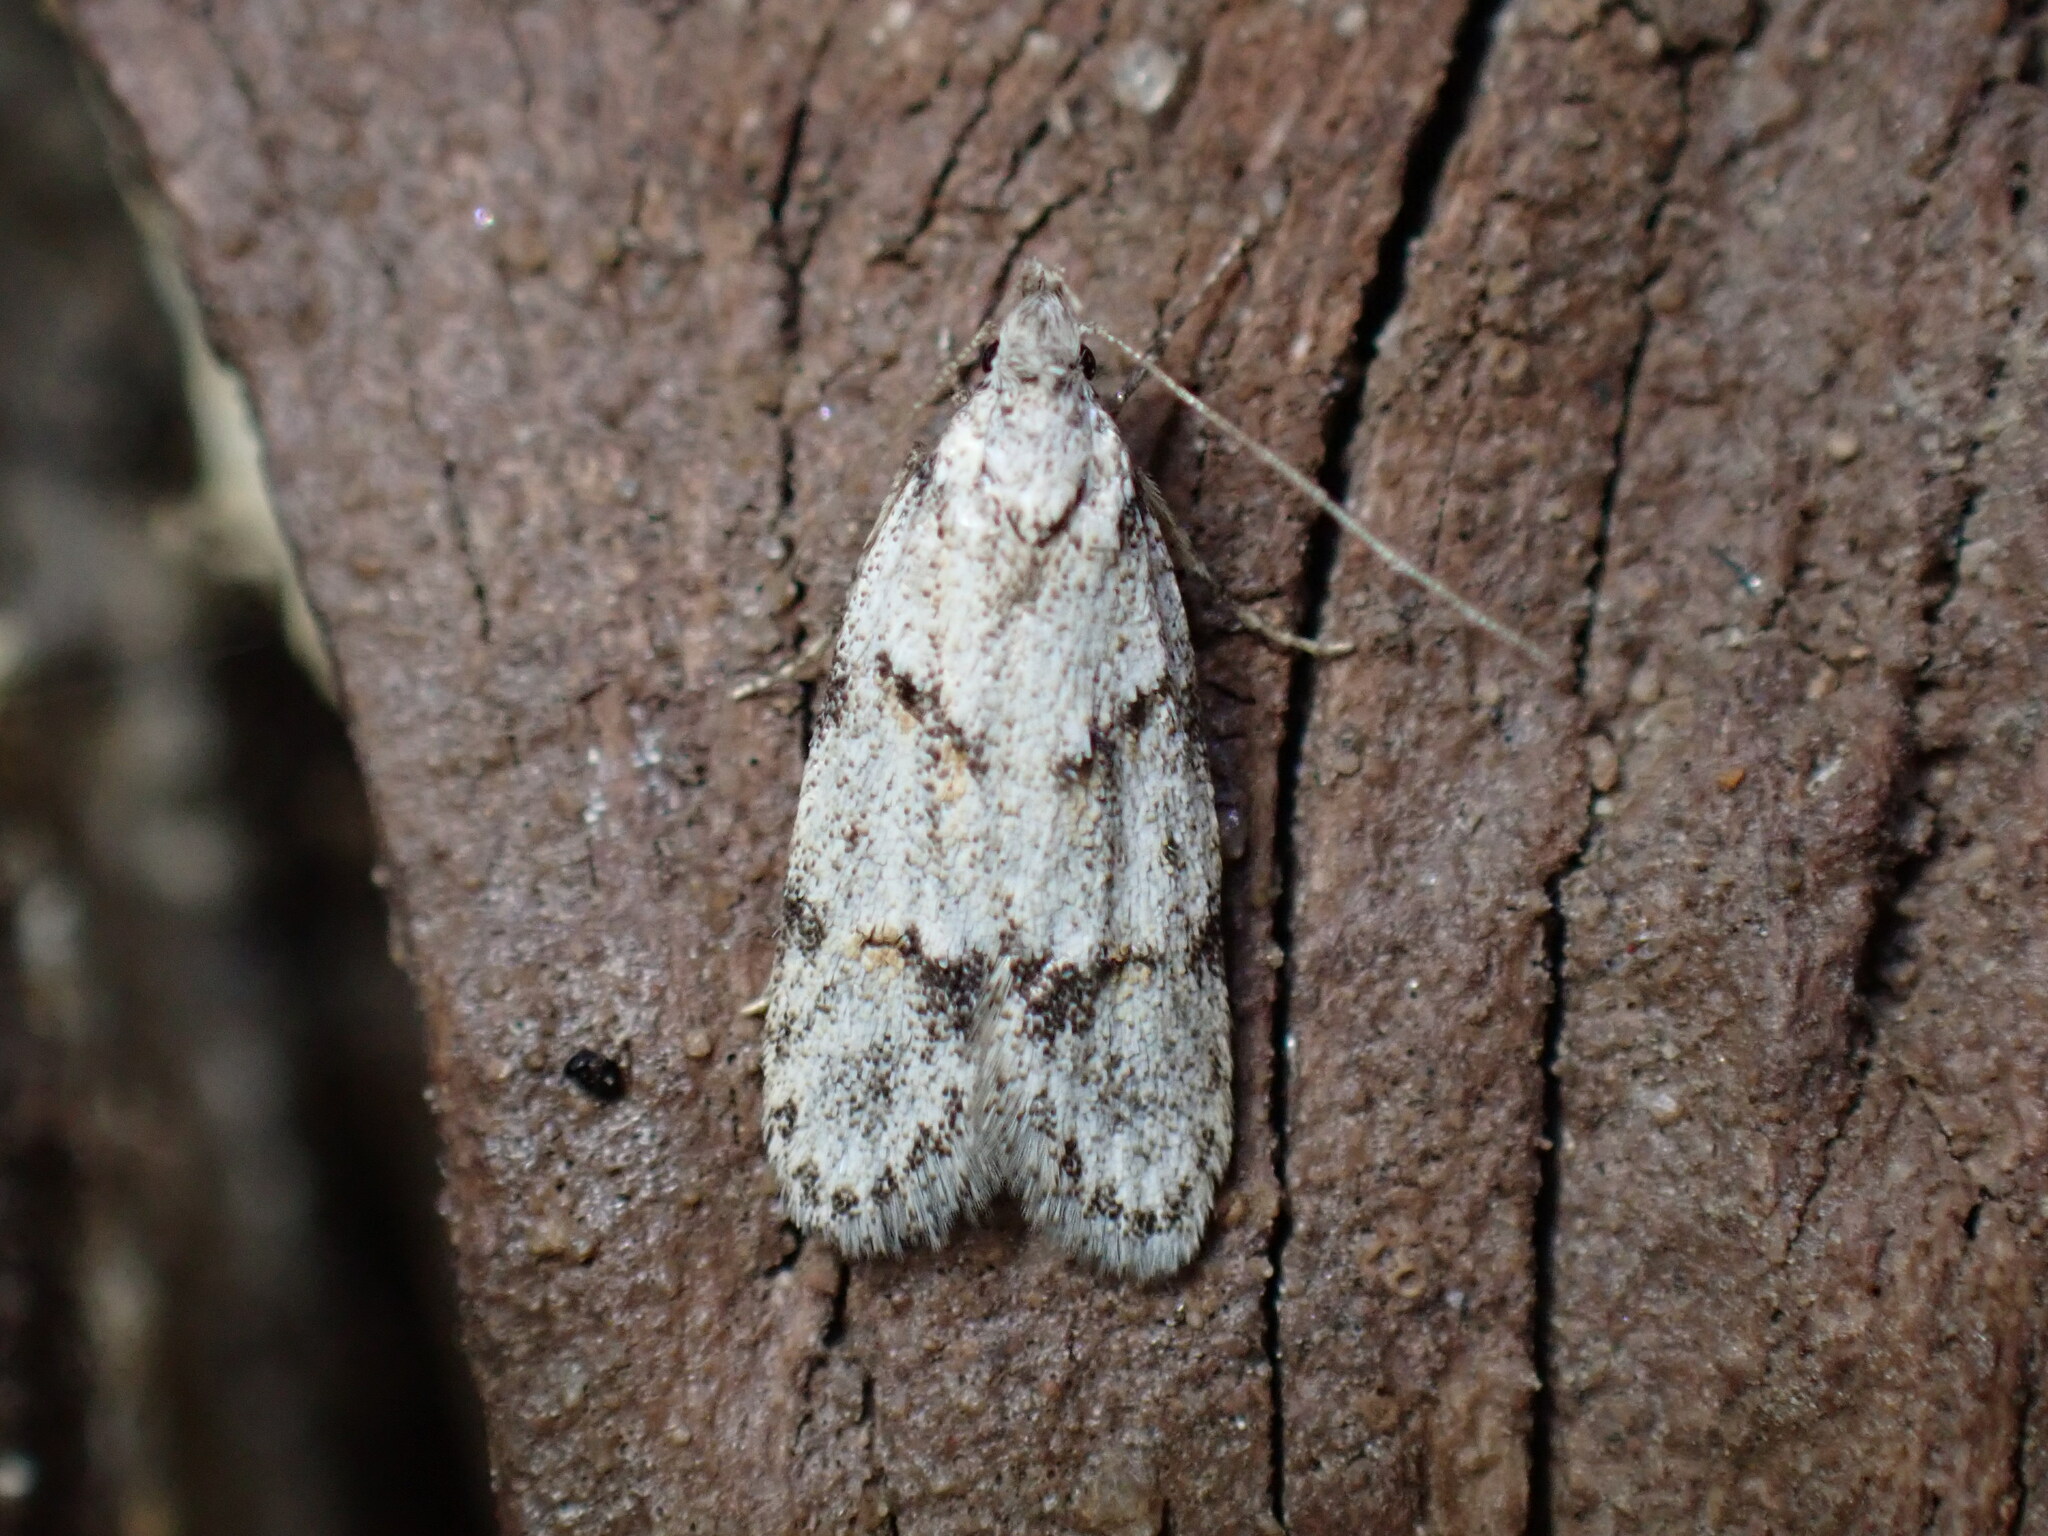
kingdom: Animalia
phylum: Arthropoda
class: Insecta
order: Lepidoptera
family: Autostichidae
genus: Symmoca
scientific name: Symmoca signatella
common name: Dockland obscure
